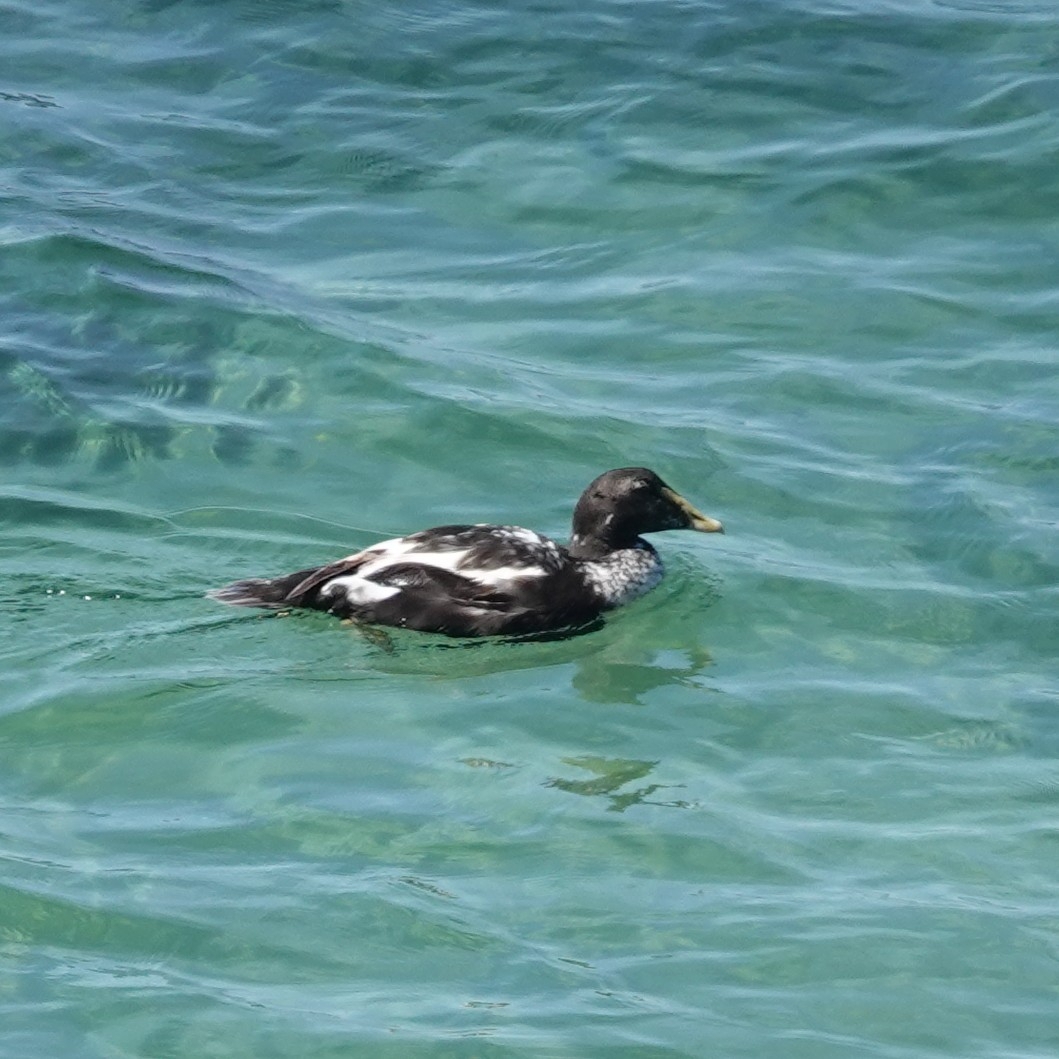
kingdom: Animalia
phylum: Chordata
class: Aves
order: Anseriformes
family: Anatidae
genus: Somateria
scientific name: Somateria mollissima
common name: Common eider
